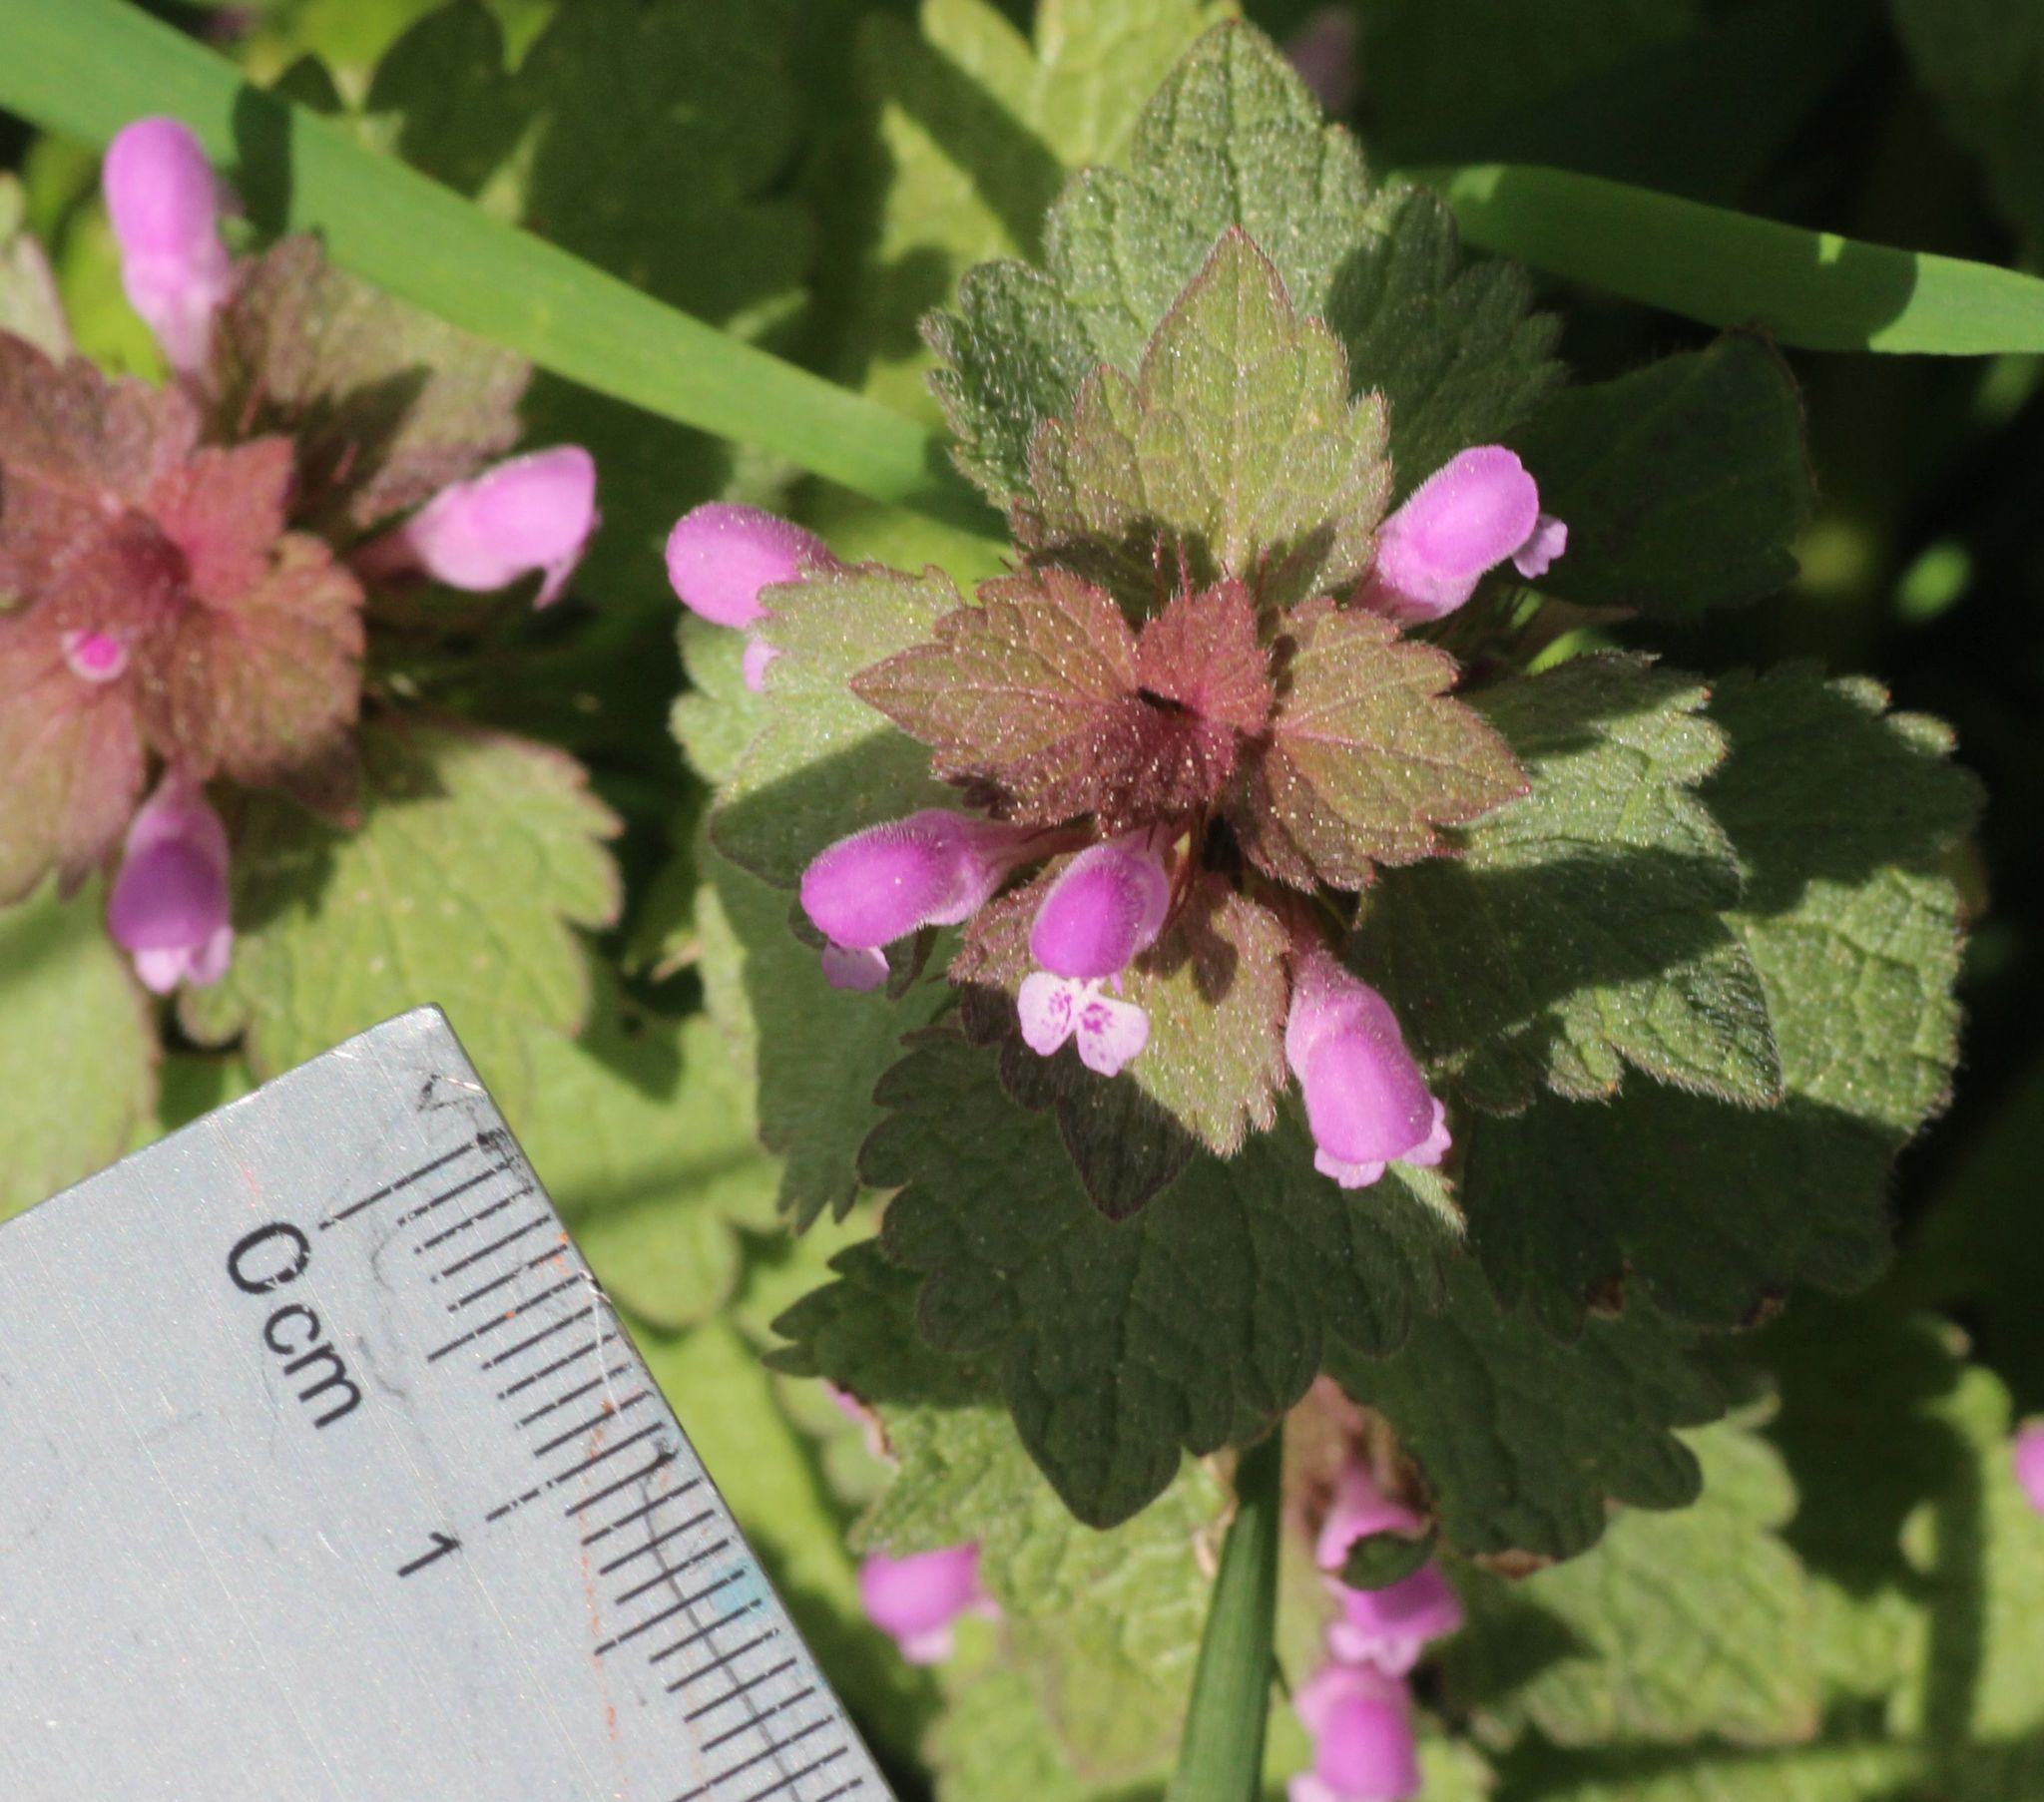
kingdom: Plantae
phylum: Tracheophyta
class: Magnoliopsida
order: Lamiales
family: Lamiaceae
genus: Lamium
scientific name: Lamium purpureum
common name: Red dead-nettle
